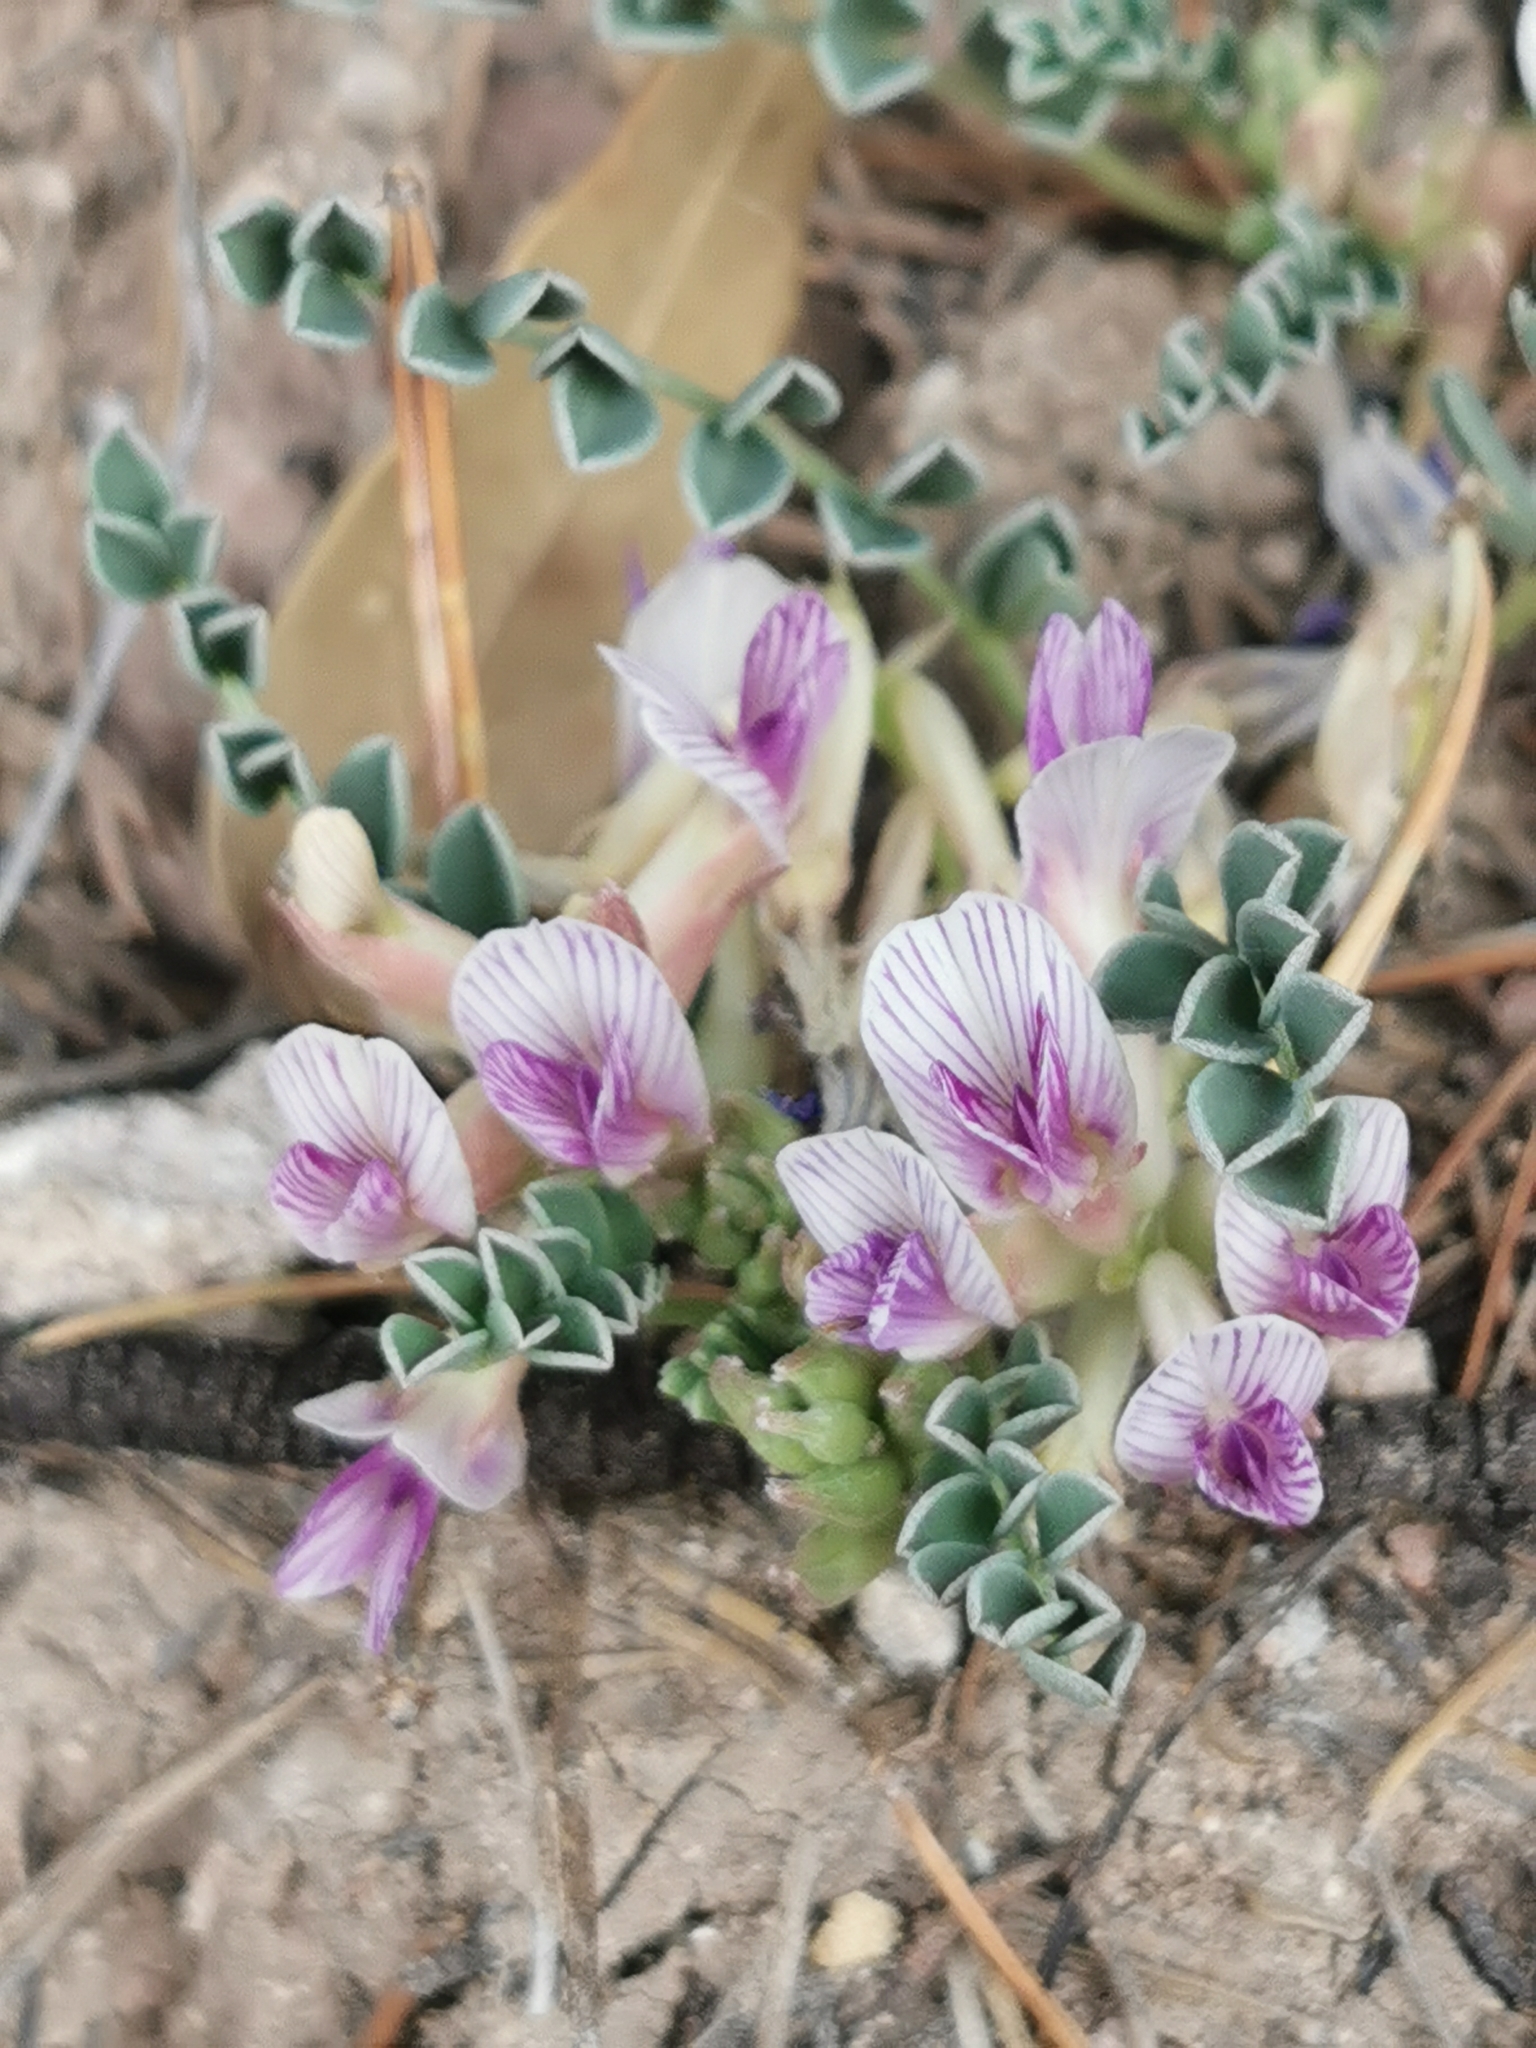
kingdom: Plantae
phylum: Tracheophyta
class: Magnoliopsida
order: Fabales
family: Fabaceae
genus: Astragalus
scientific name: Astragalus pringlei
